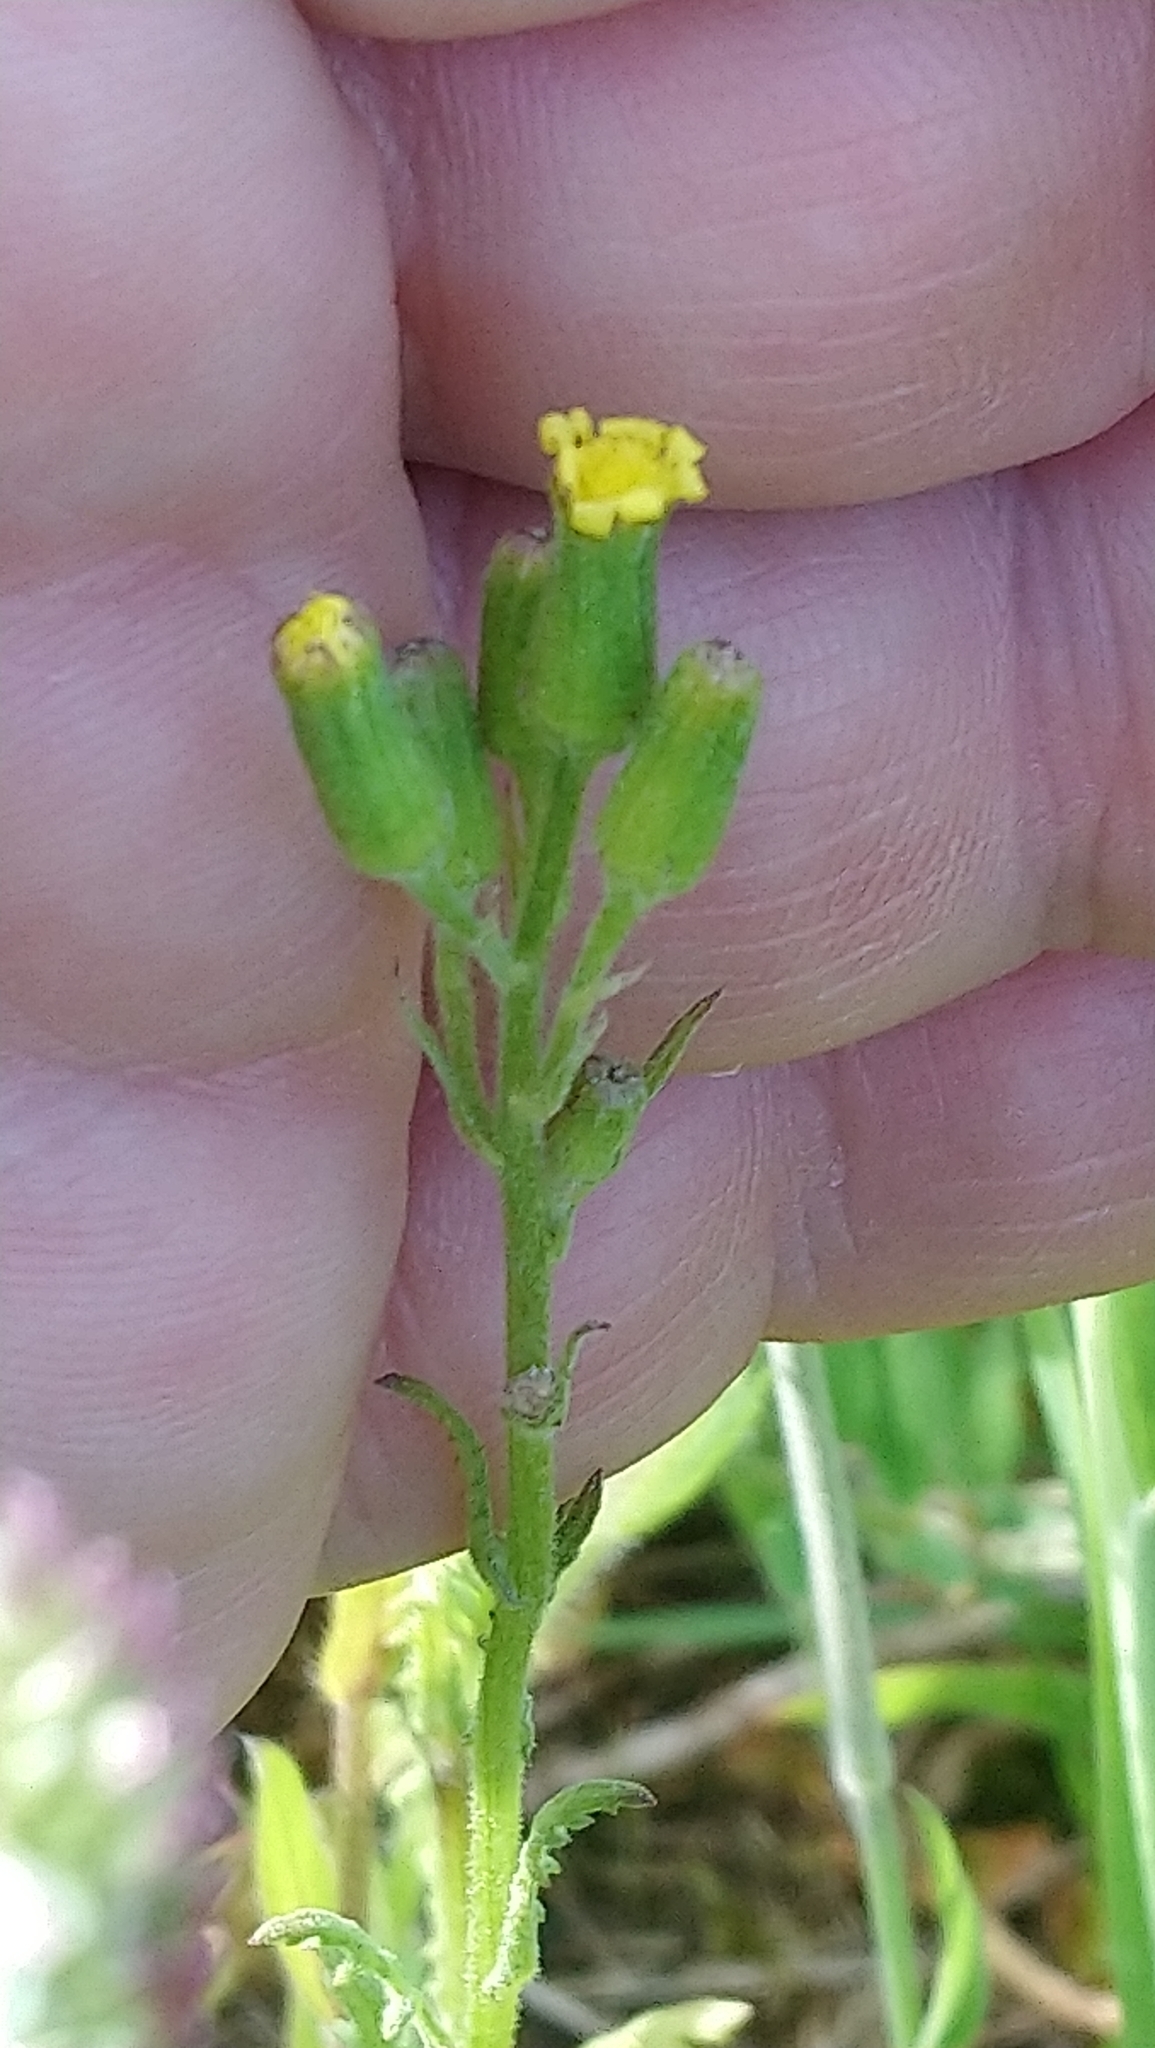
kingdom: Plantae
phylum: Tracheophyta
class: Magnoliopsida
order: Asterales
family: Asteraceae
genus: Senecio
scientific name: Senecio sylvaticus
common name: Woodland ragwort
